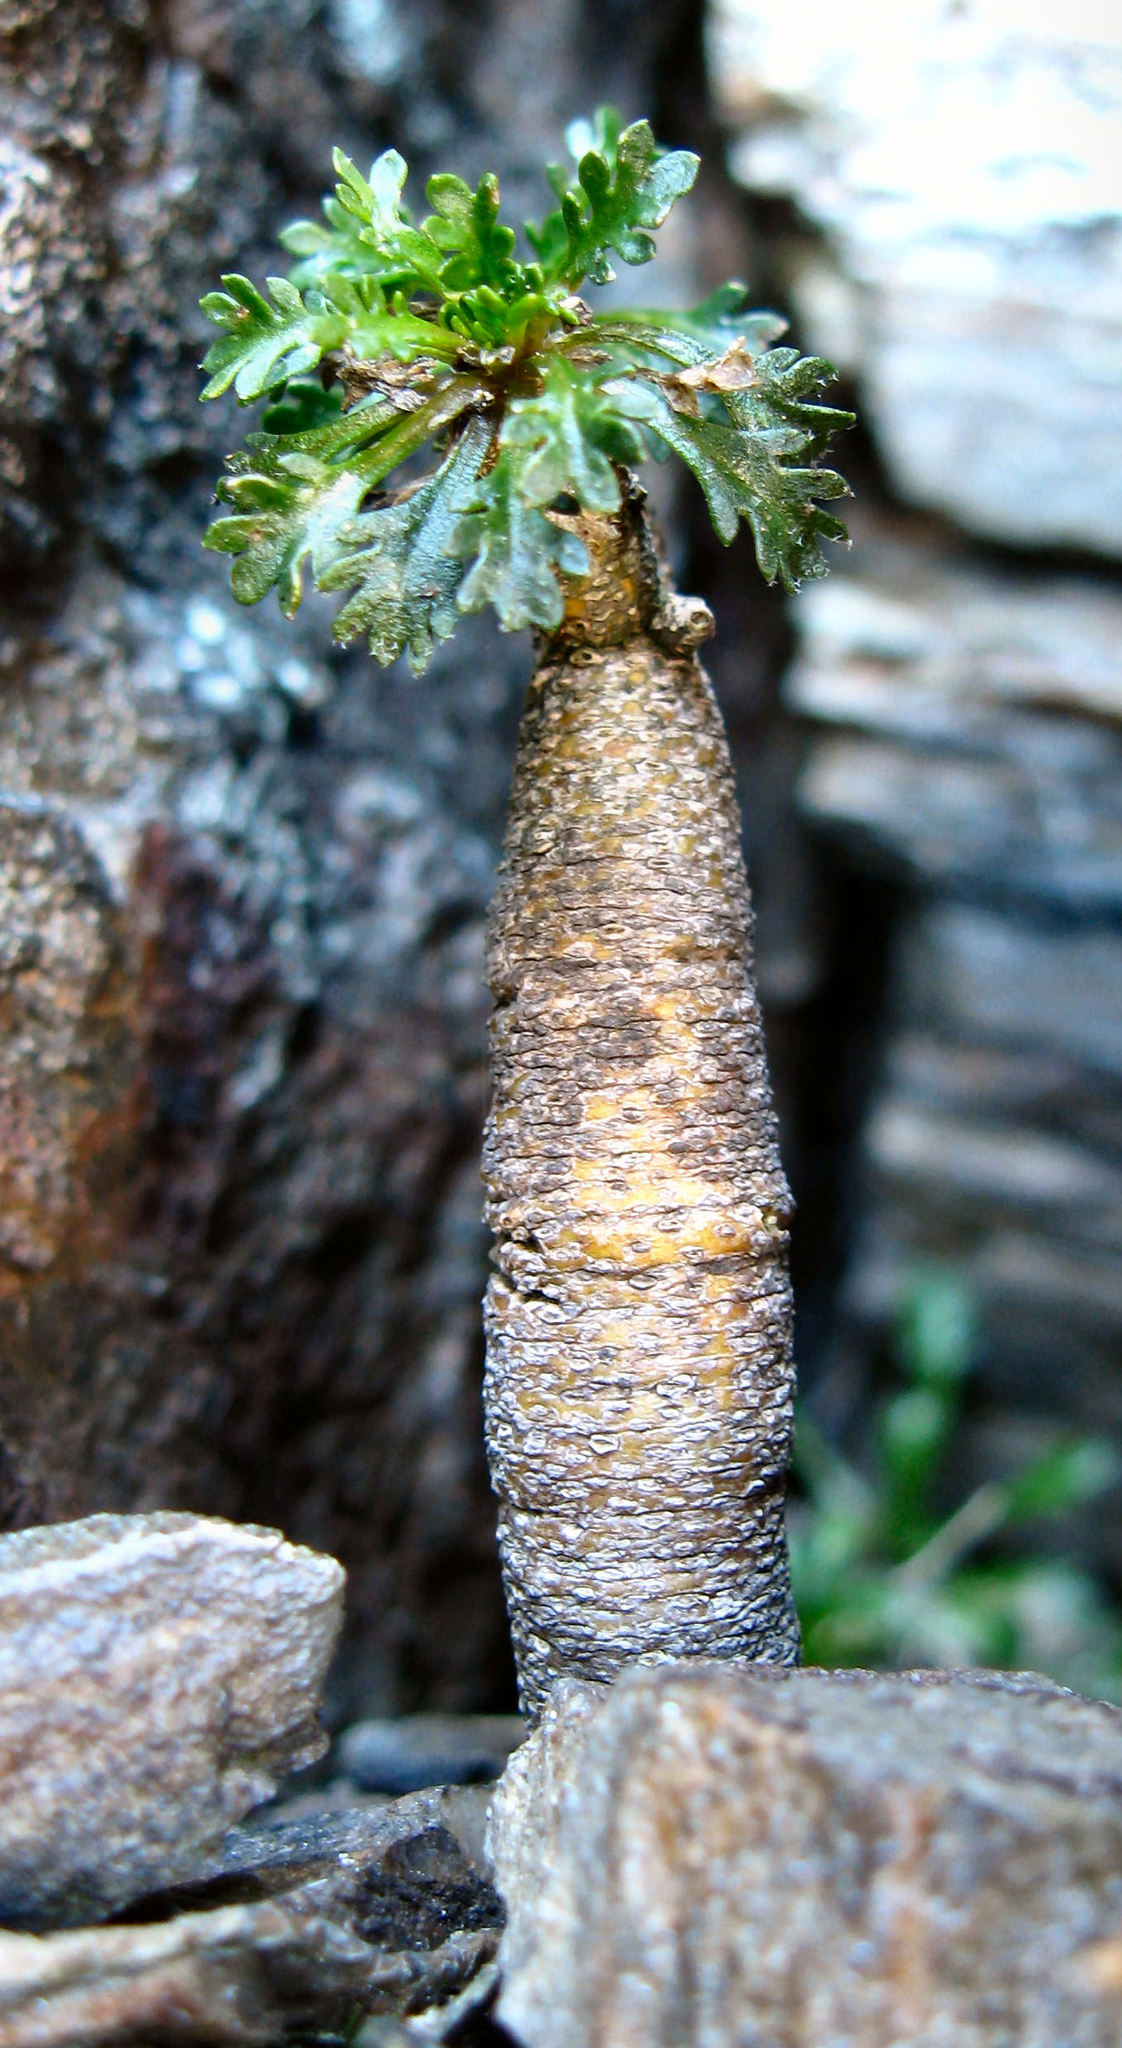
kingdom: Plantae
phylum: Tracheophyta
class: Magnoliopsida
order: Brassicales
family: Brassicaceae
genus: Pachycladon
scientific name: Pachycladon novae-zelandiae
